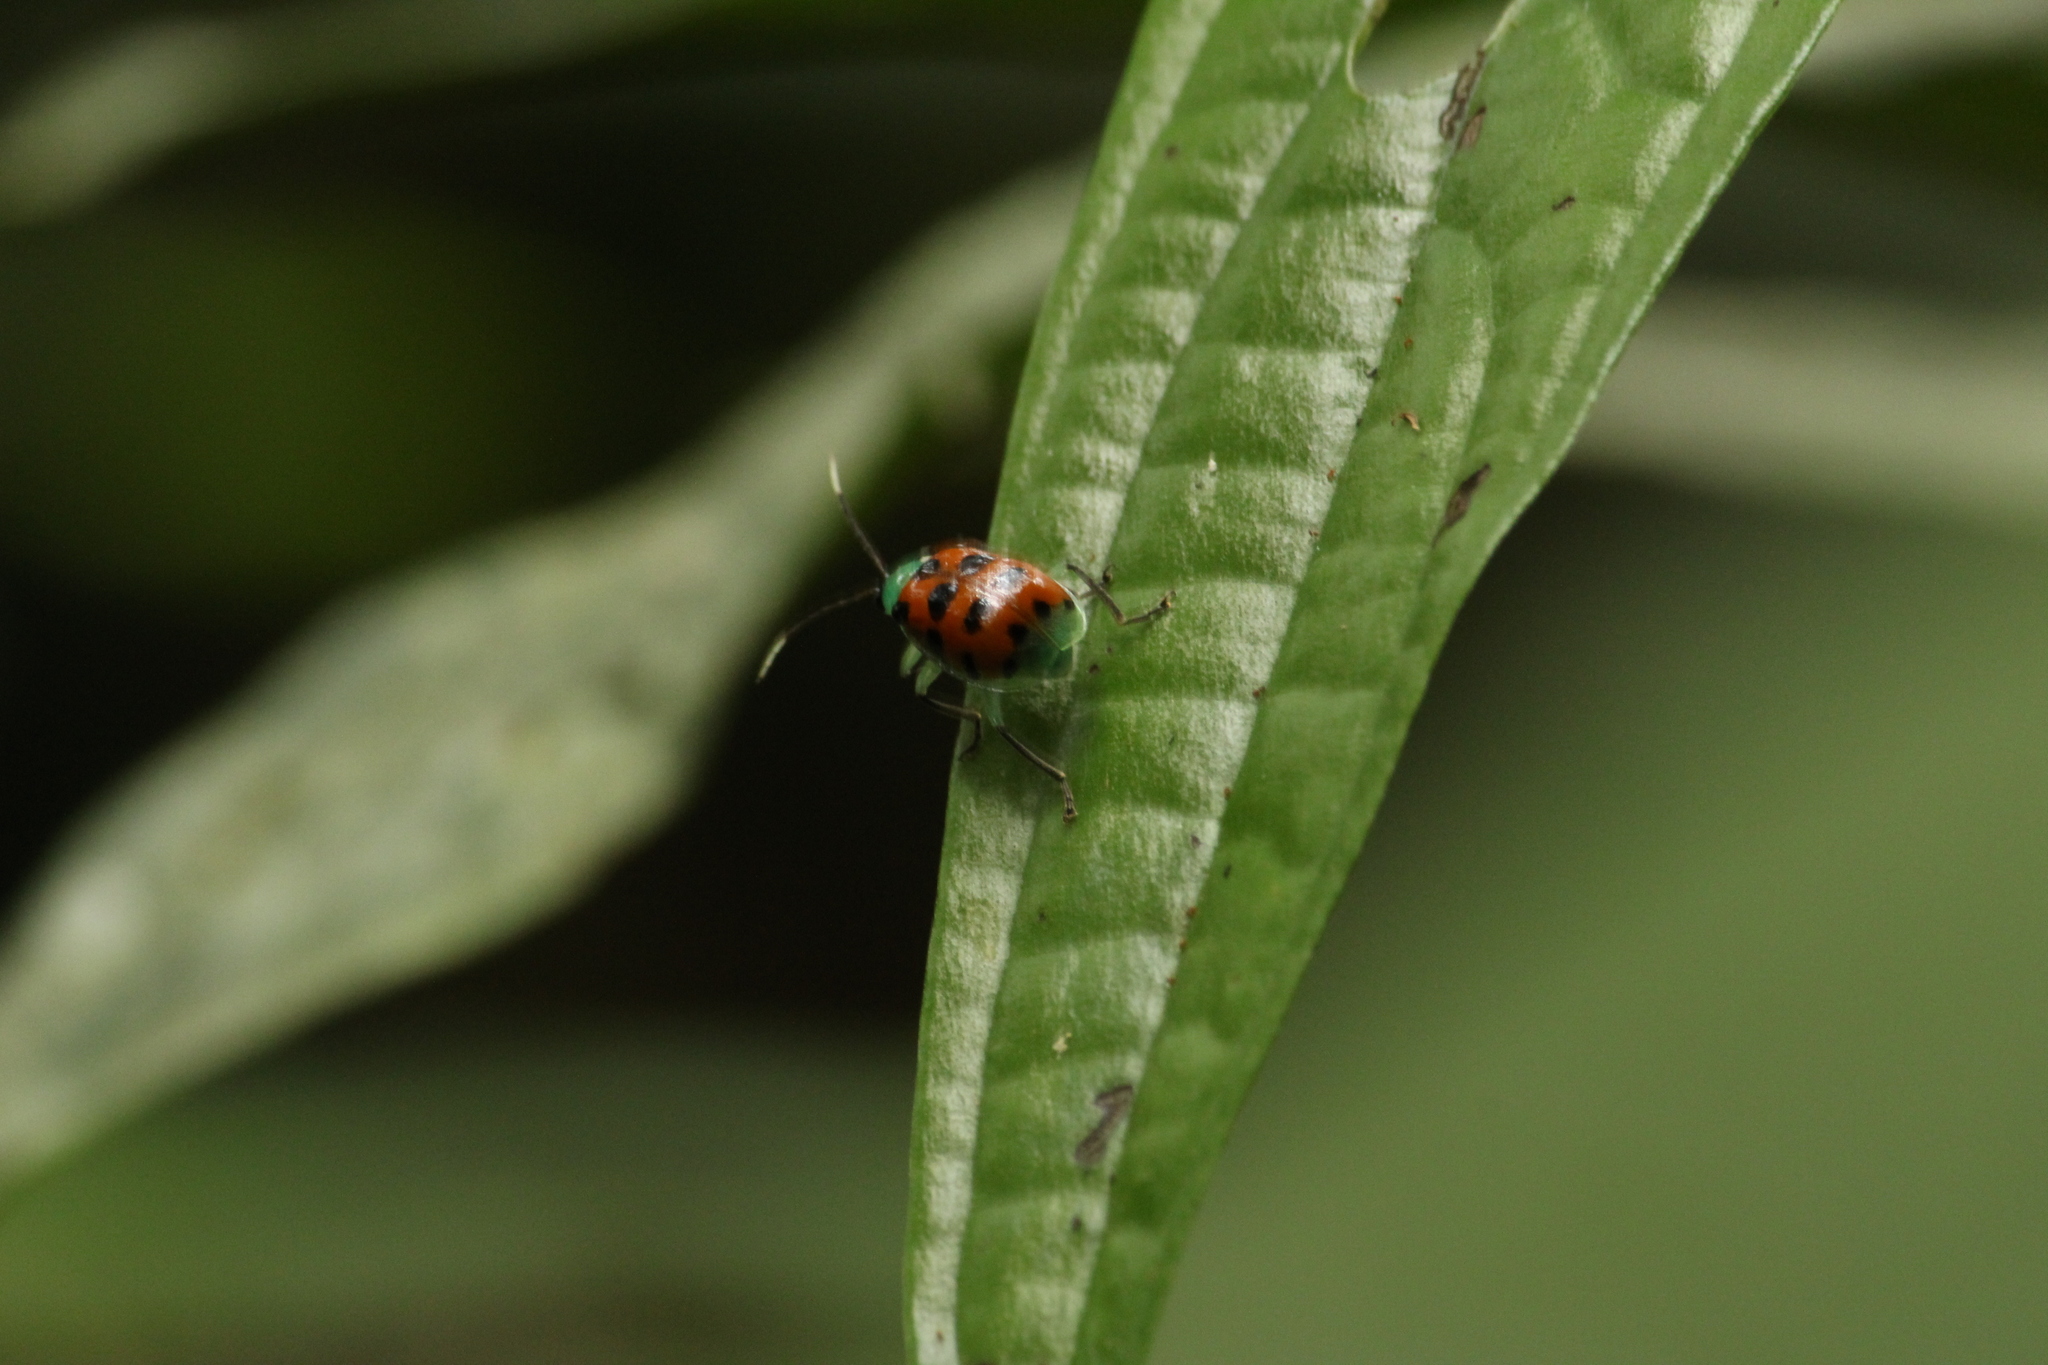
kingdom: Animalia
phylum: Arthropoda
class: Insecta
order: Coleoptera
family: Chrysomelidae
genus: Diabrotica
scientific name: Diabrotica limitata
